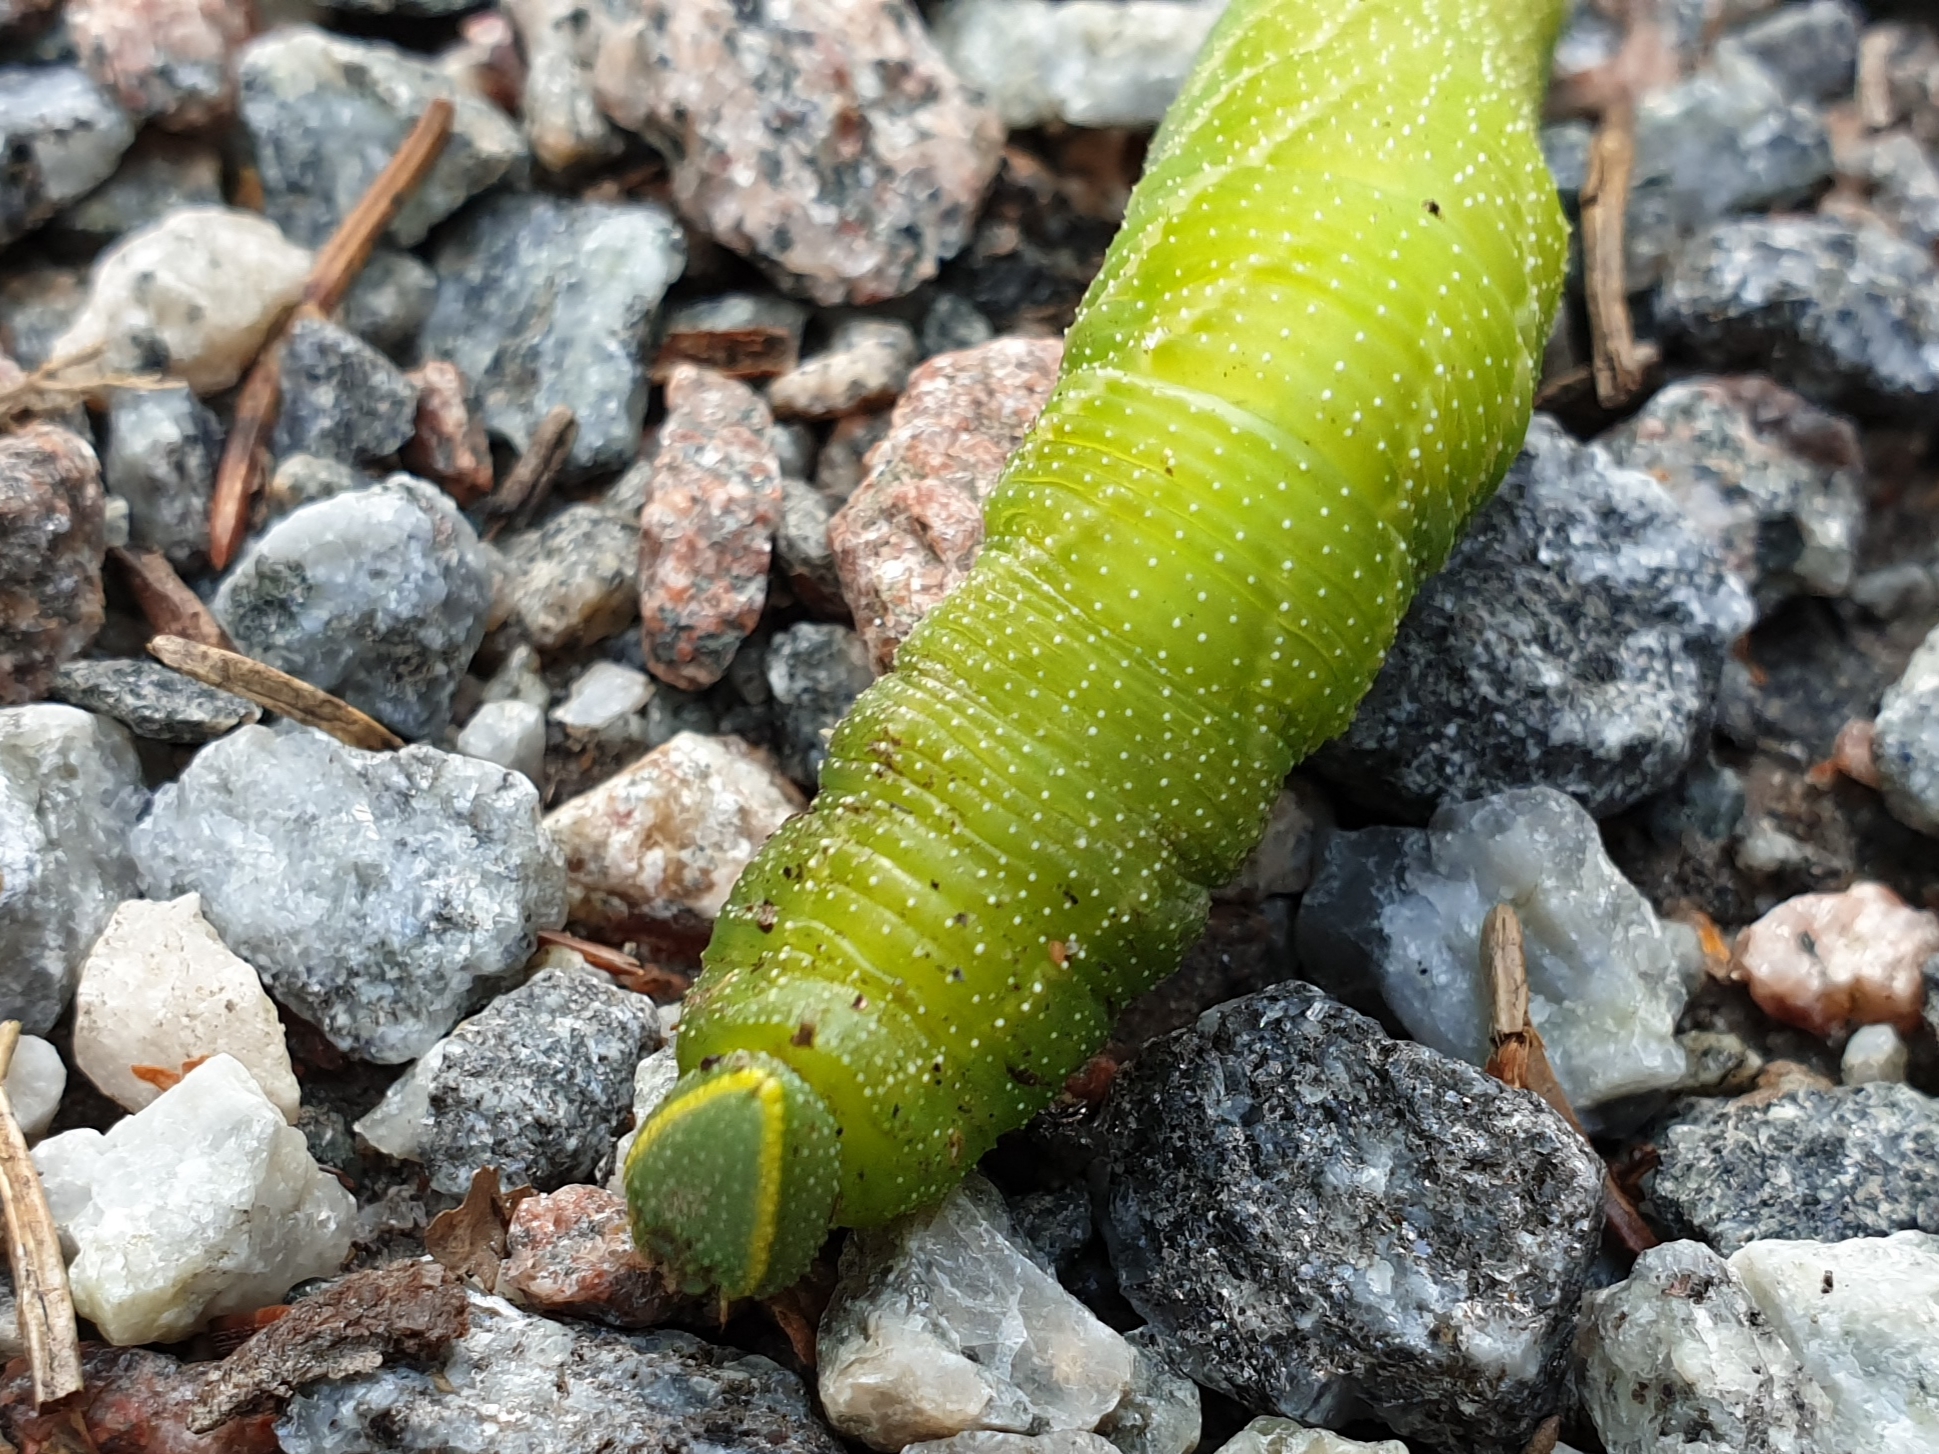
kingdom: Animalia
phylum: Arthropoda
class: Insecta
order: Lepidoptera
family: Sphingidae
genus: Smerinthus
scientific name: Smerinthus ocellata
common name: Eyed hawk-moth
